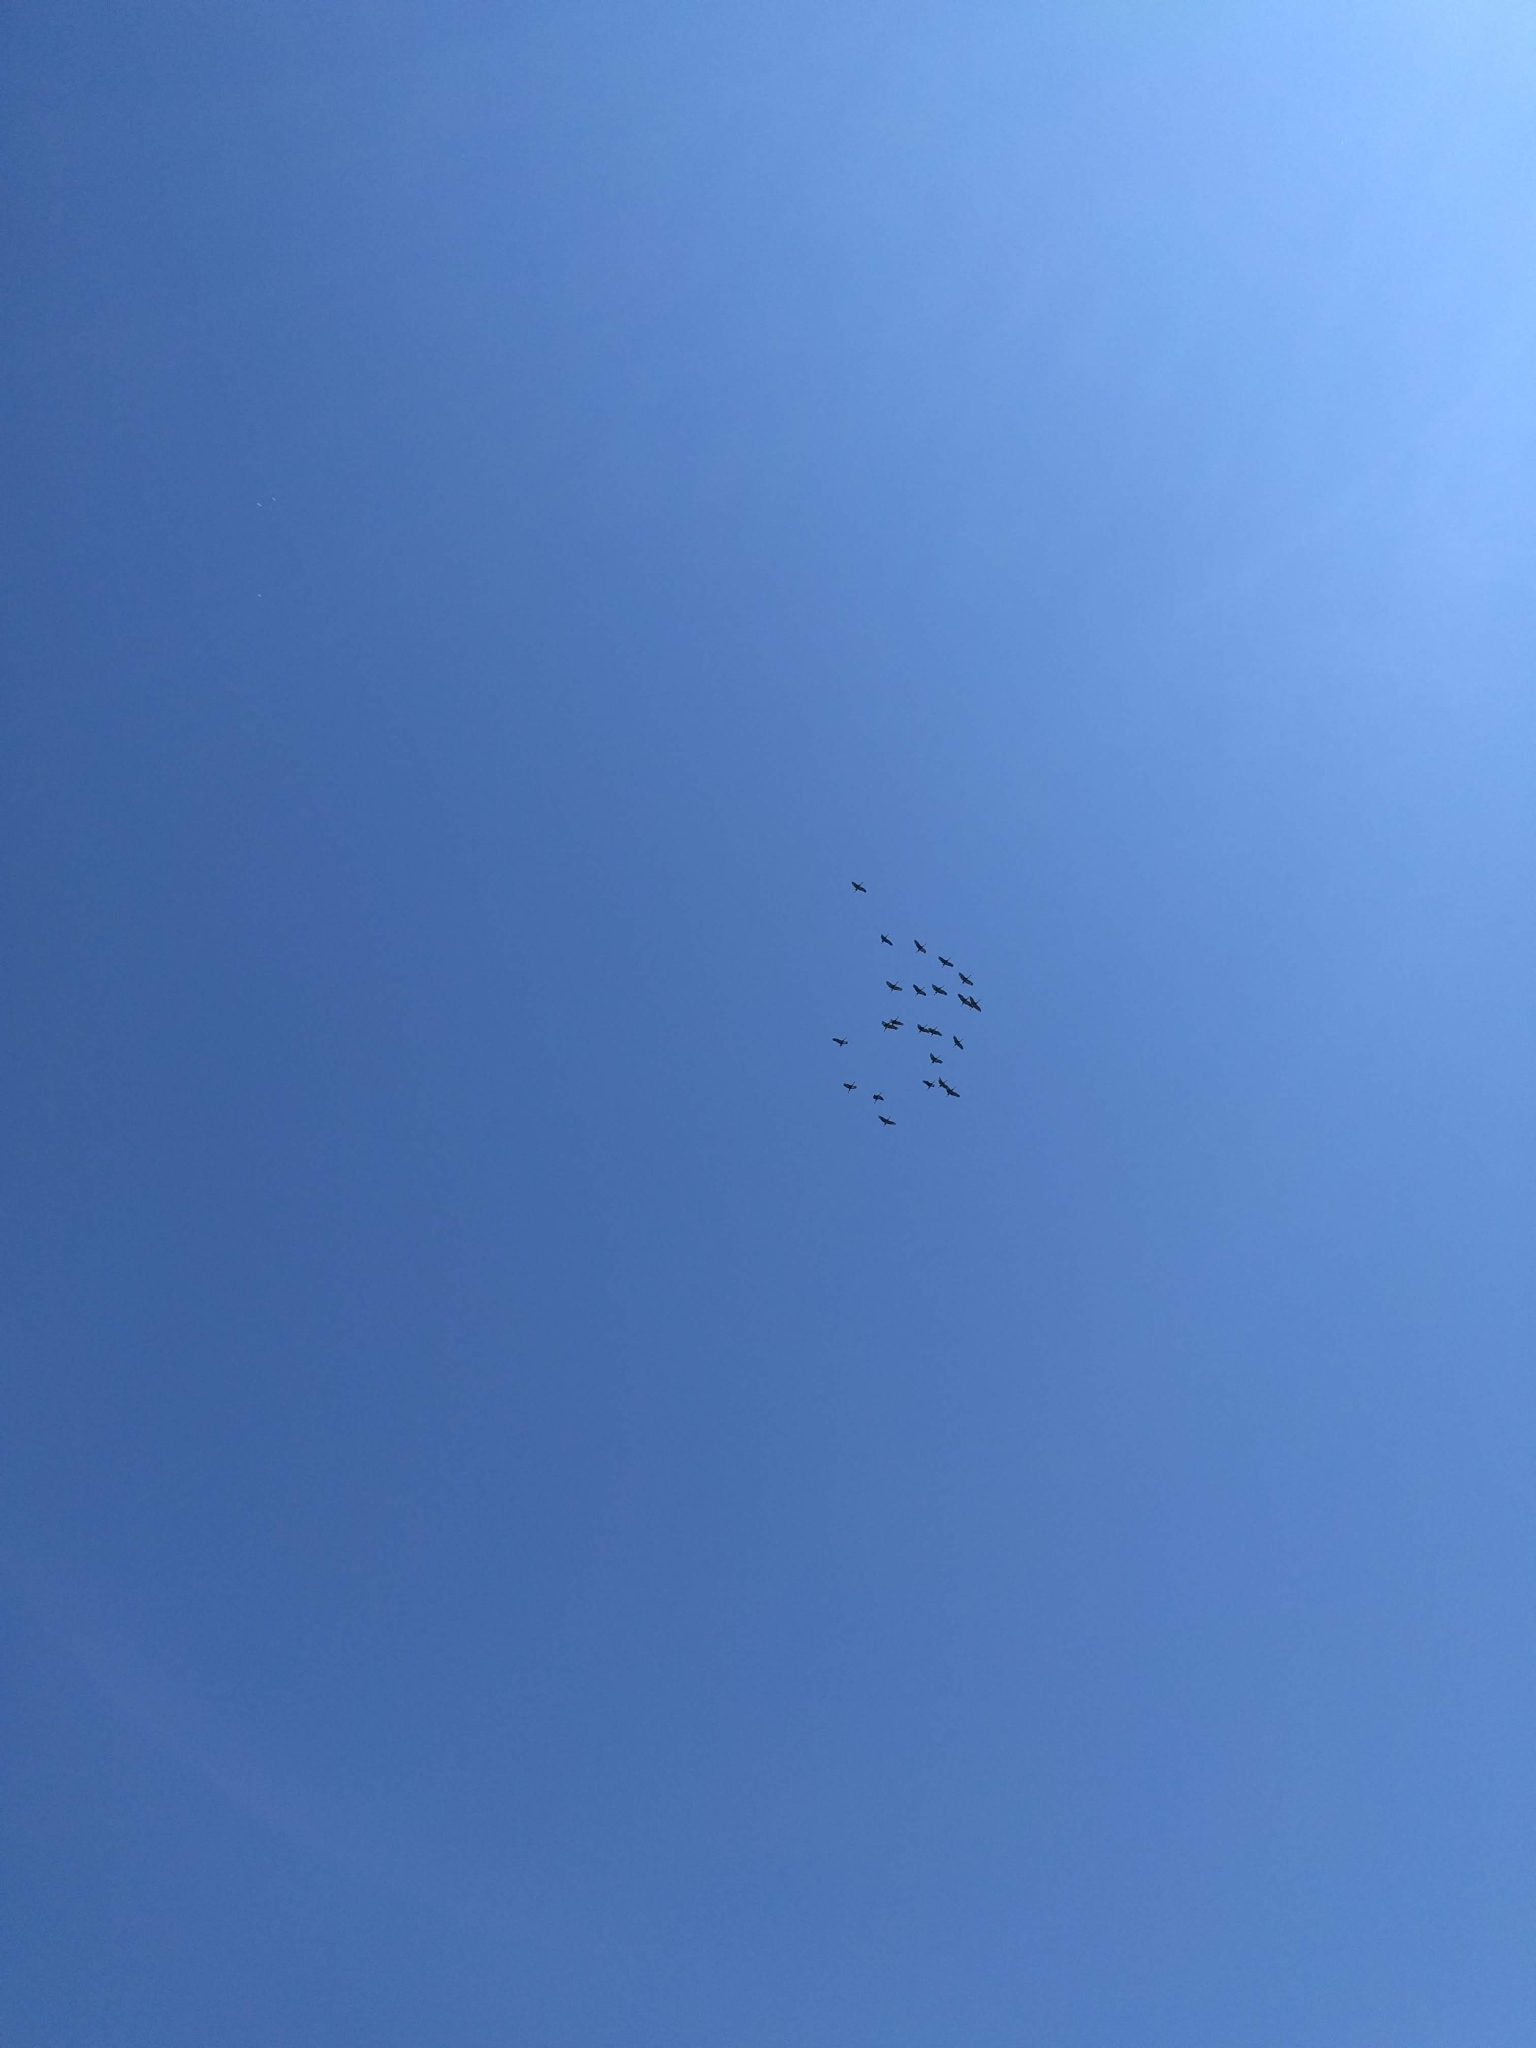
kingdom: Animalia
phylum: Chordata
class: Aves
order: Gruiformes
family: Gruidae
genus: Grus
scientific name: Grus canadensis
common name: Sandhill crane
